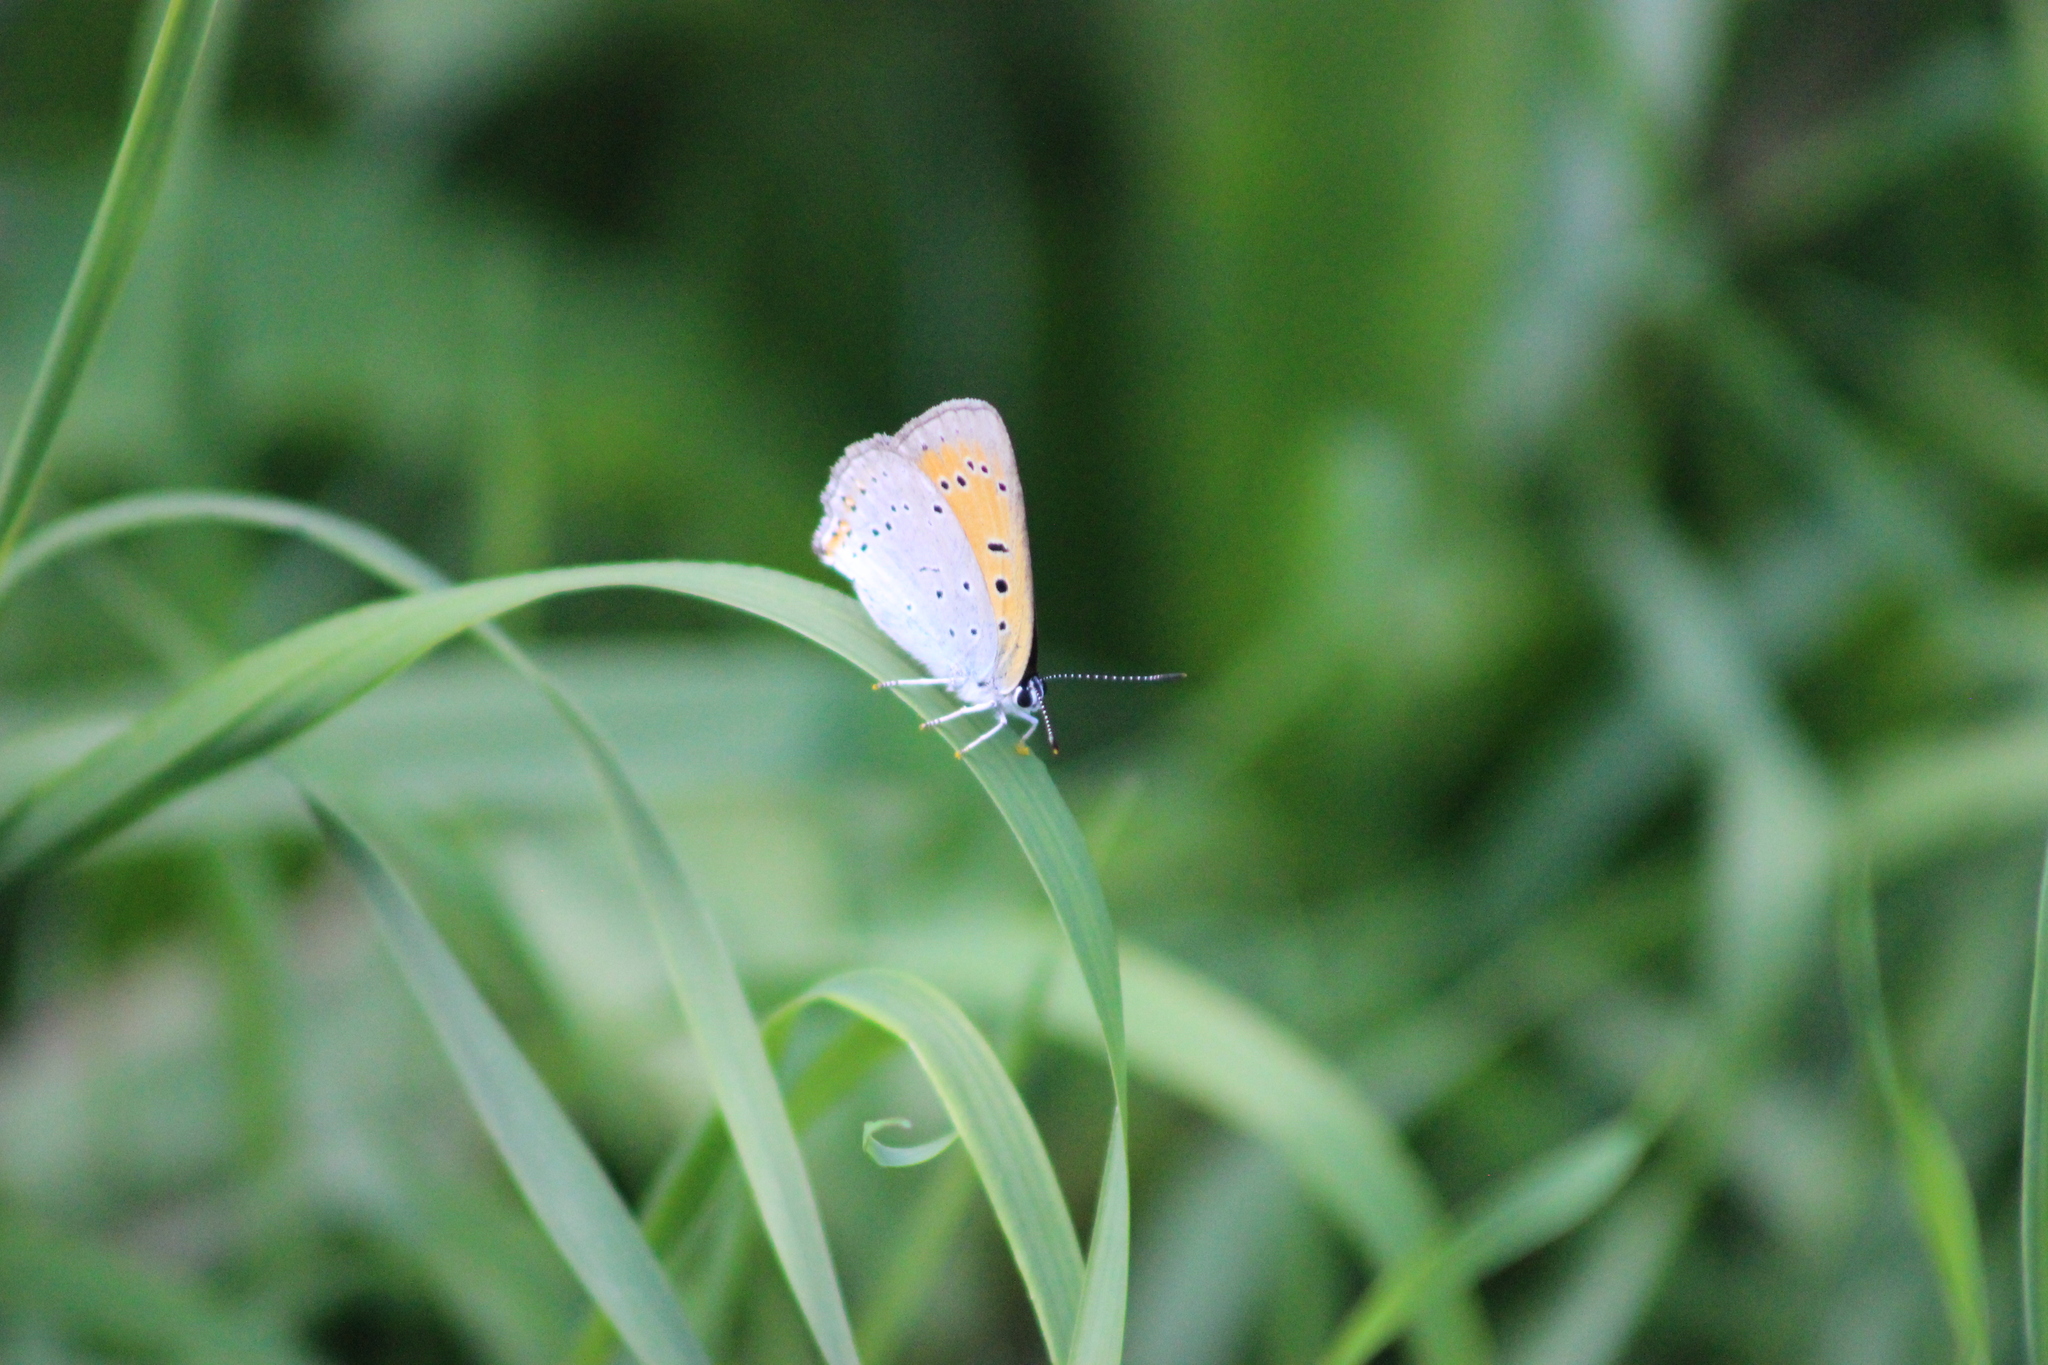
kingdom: Animalia
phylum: Arthropoda
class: Insecta
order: Lepidoptera
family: Lycaenidae
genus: Lycaena
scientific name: Lycaena dispar
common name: Large copper
